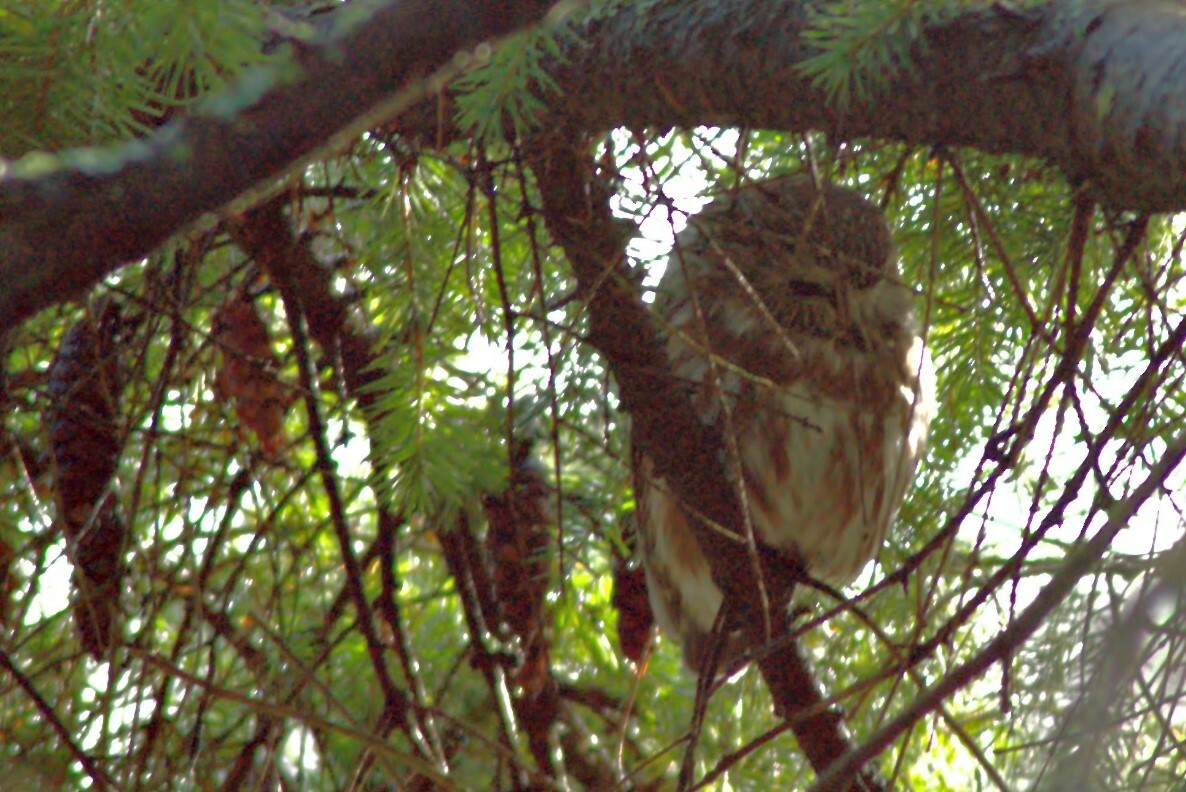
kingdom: Animalia
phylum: Chordata
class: Aves
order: Strigiformes
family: Strigidae
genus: Aegolius
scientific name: Aegolius acadicus
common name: Northern saw-whet owl
